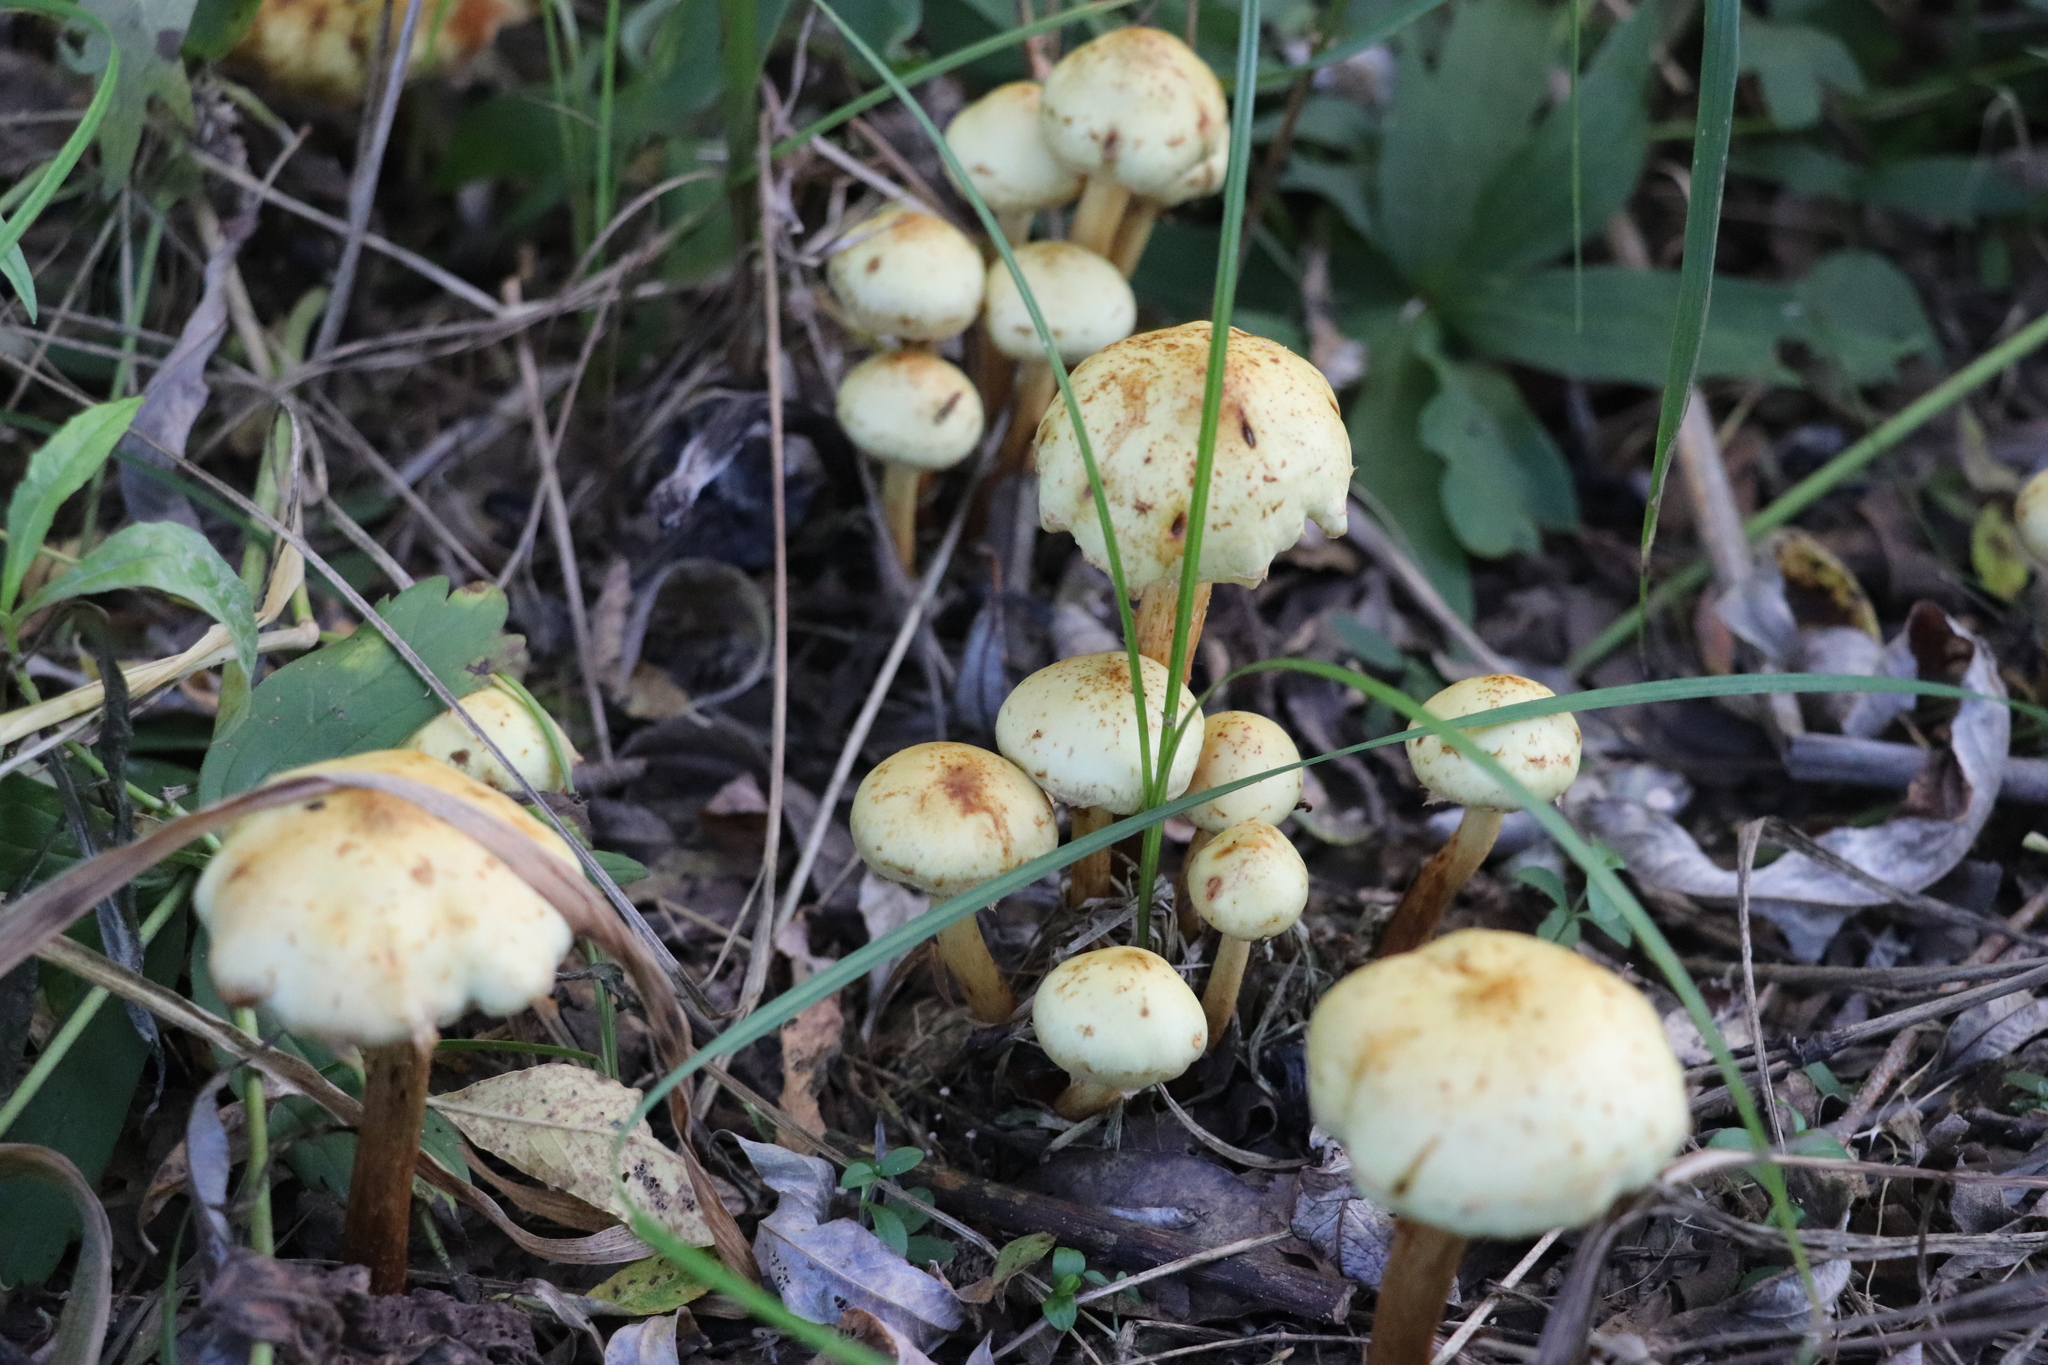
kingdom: Fungi
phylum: Basidiomycota
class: Agaricomycetes
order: Agaricales
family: Hymenogastraceae
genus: Flammula
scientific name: Flammula alnicola
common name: Alder scalycap
